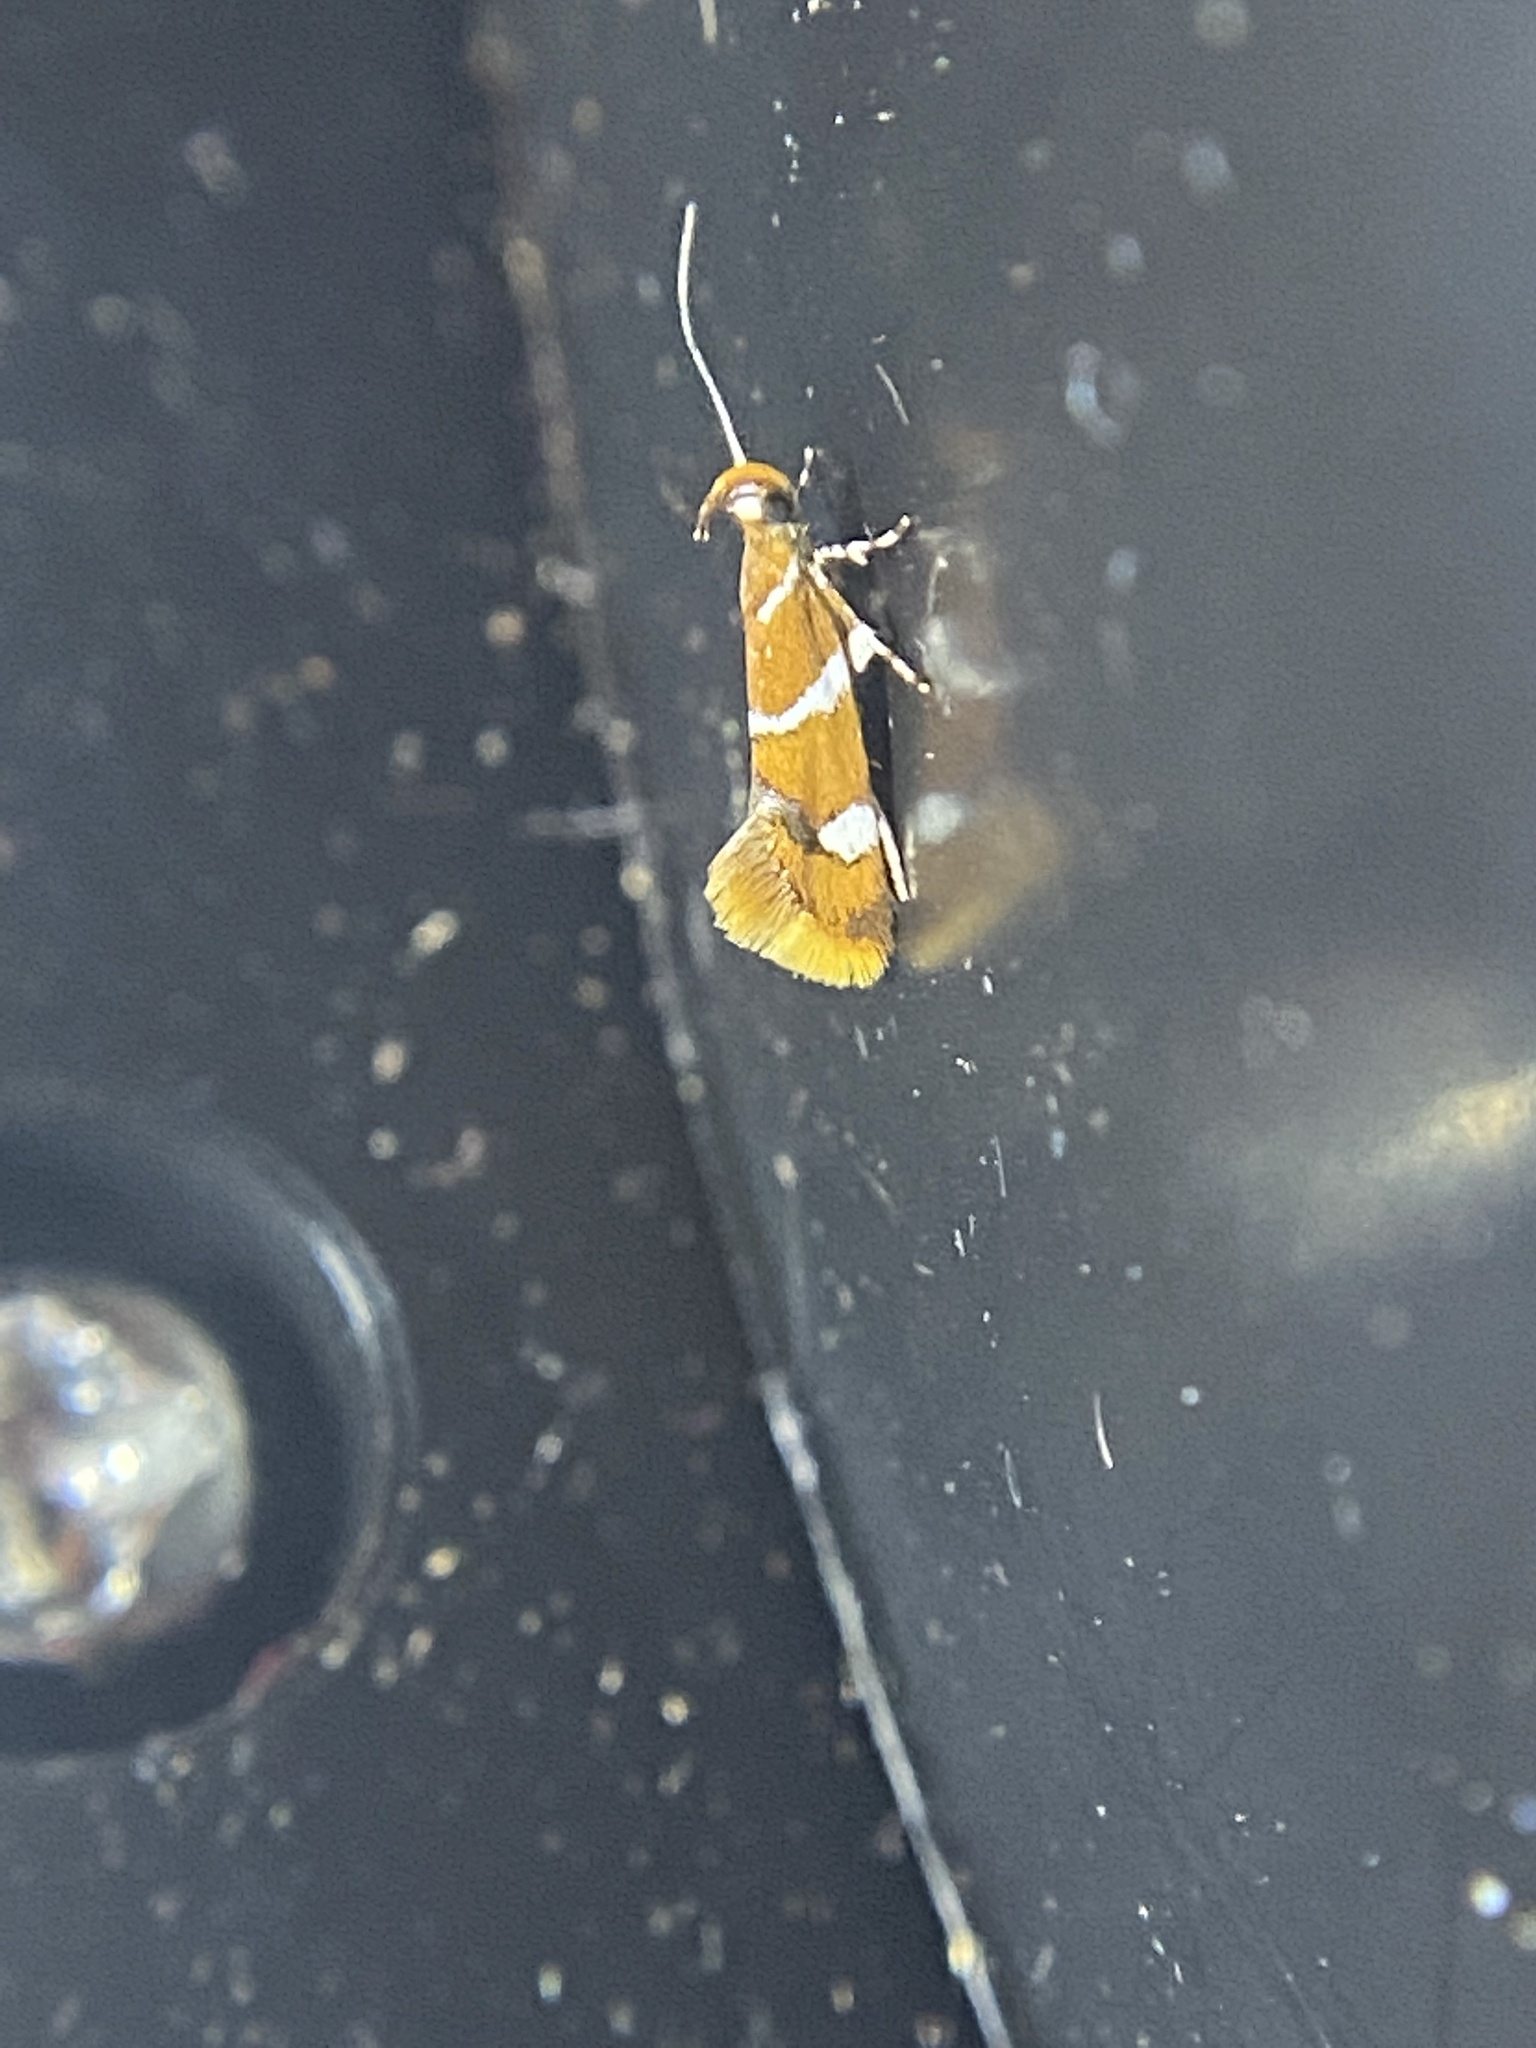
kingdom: Animalia
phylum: Arthropoda
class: Insecta
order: Lepidoptera
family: Oecophoridae
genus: Promalactis
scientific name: Promalactis suzukiella
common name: Moth
